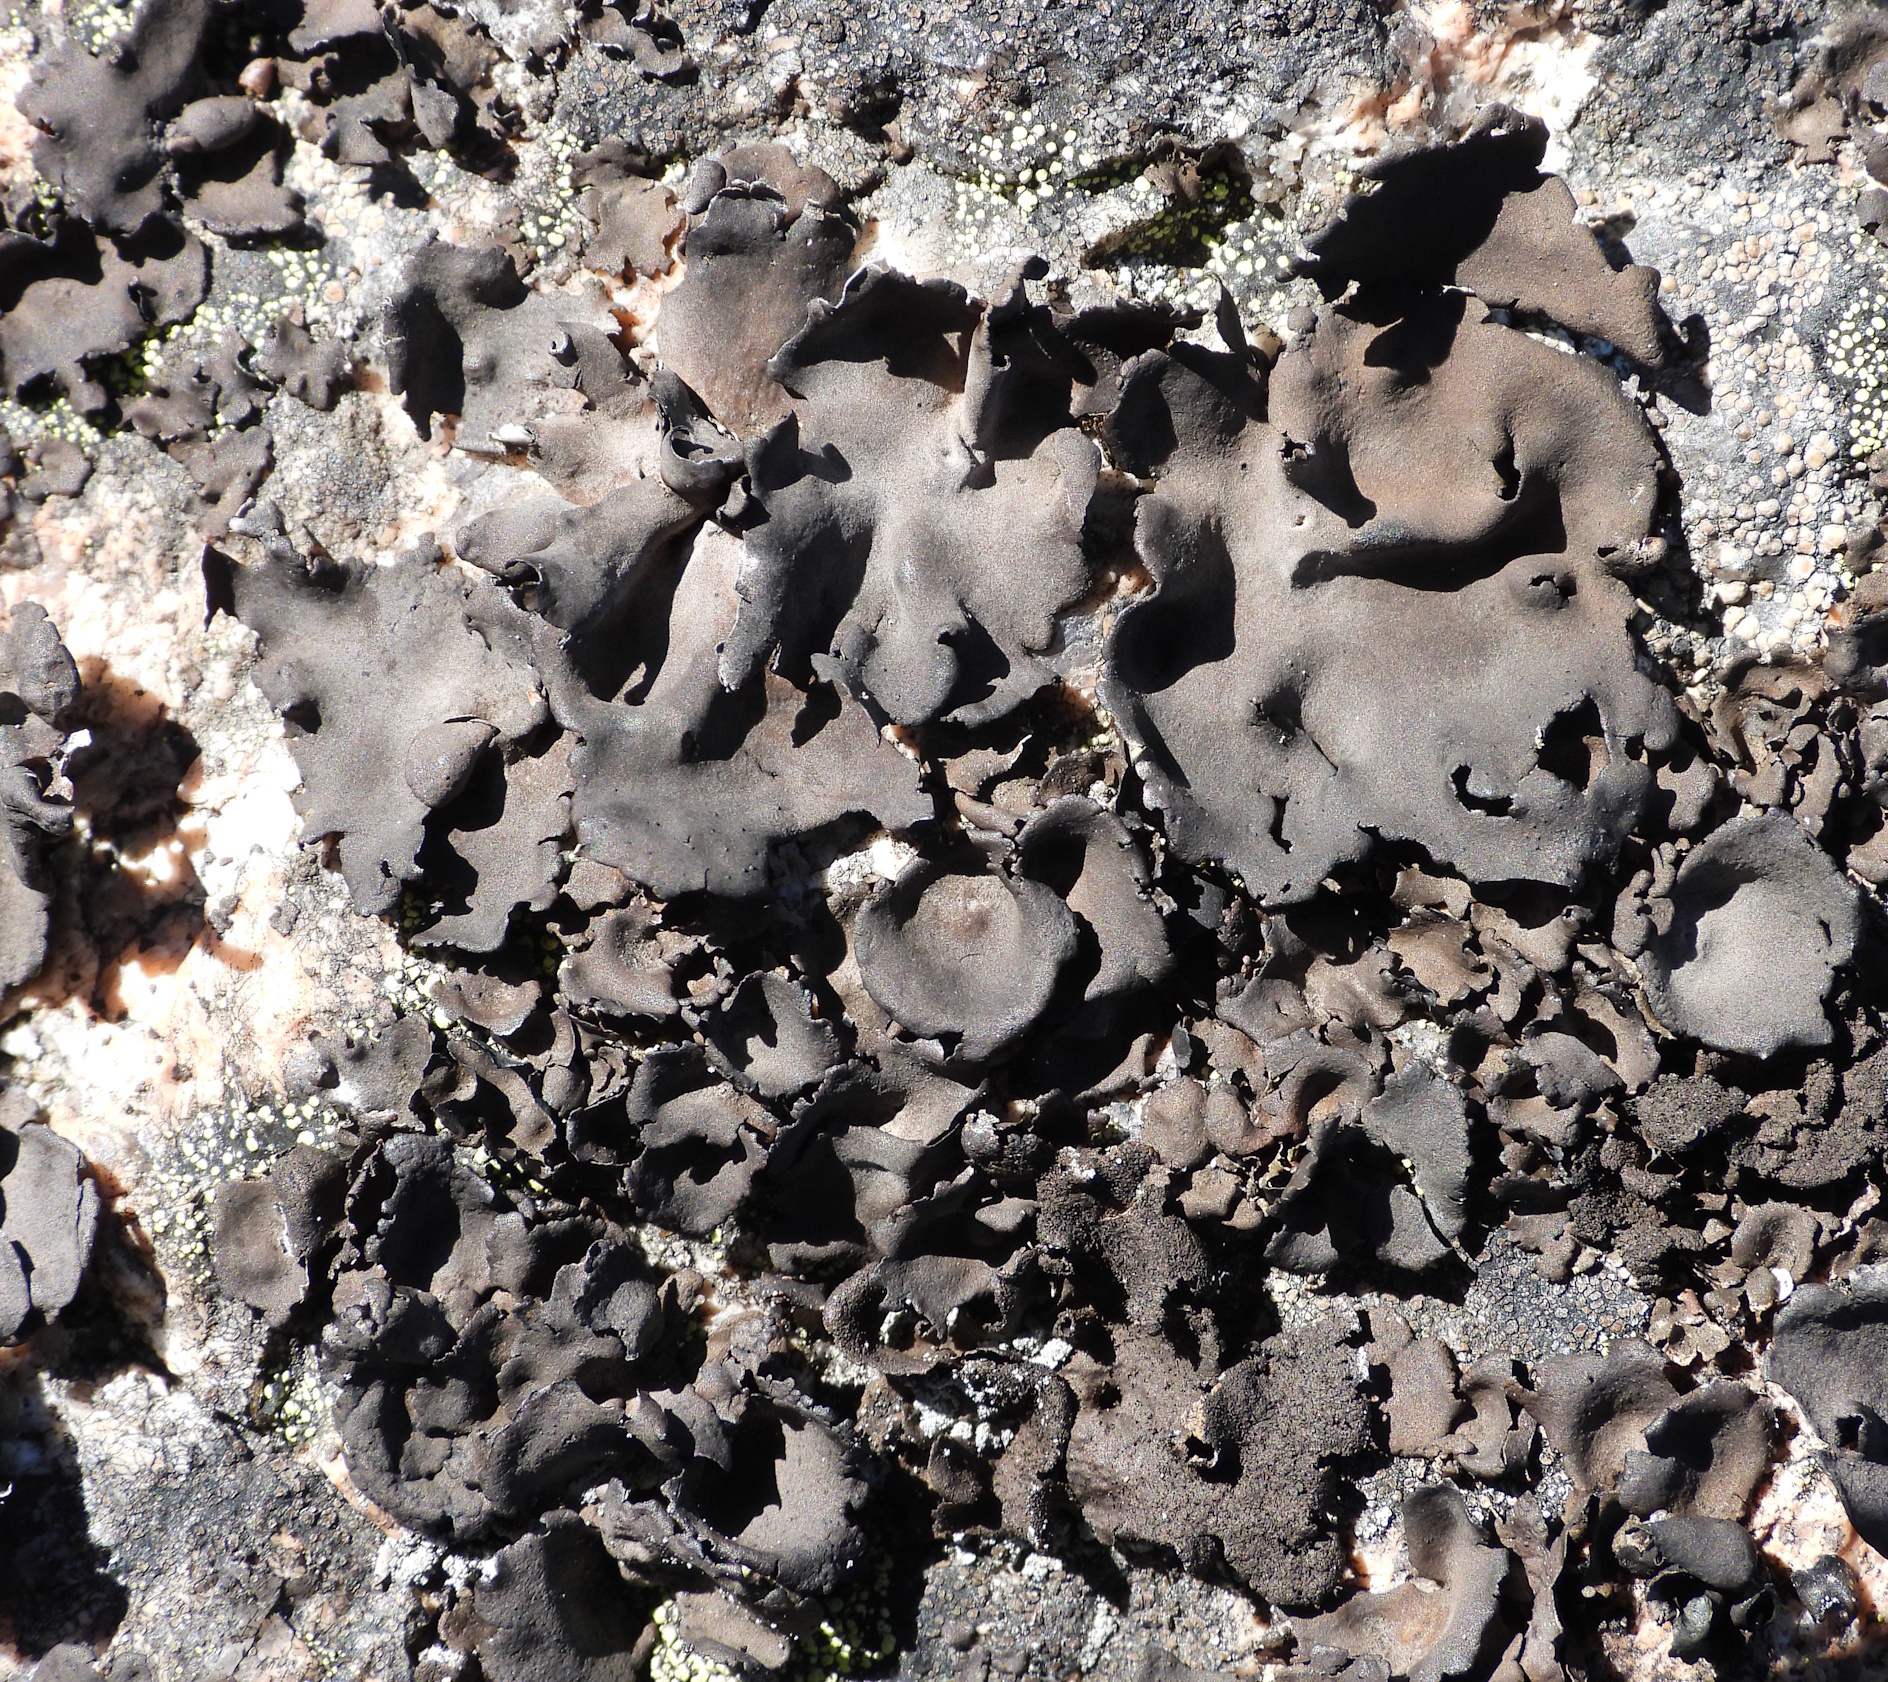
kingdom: Fungi
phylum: Ascomycota
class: Lecanoromycetes
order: Umbilicariales
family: Umbilicariaceae
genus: Umbilicaria
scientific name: Umbilicaria polyphylla
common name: Petalled rocktripe lichen
